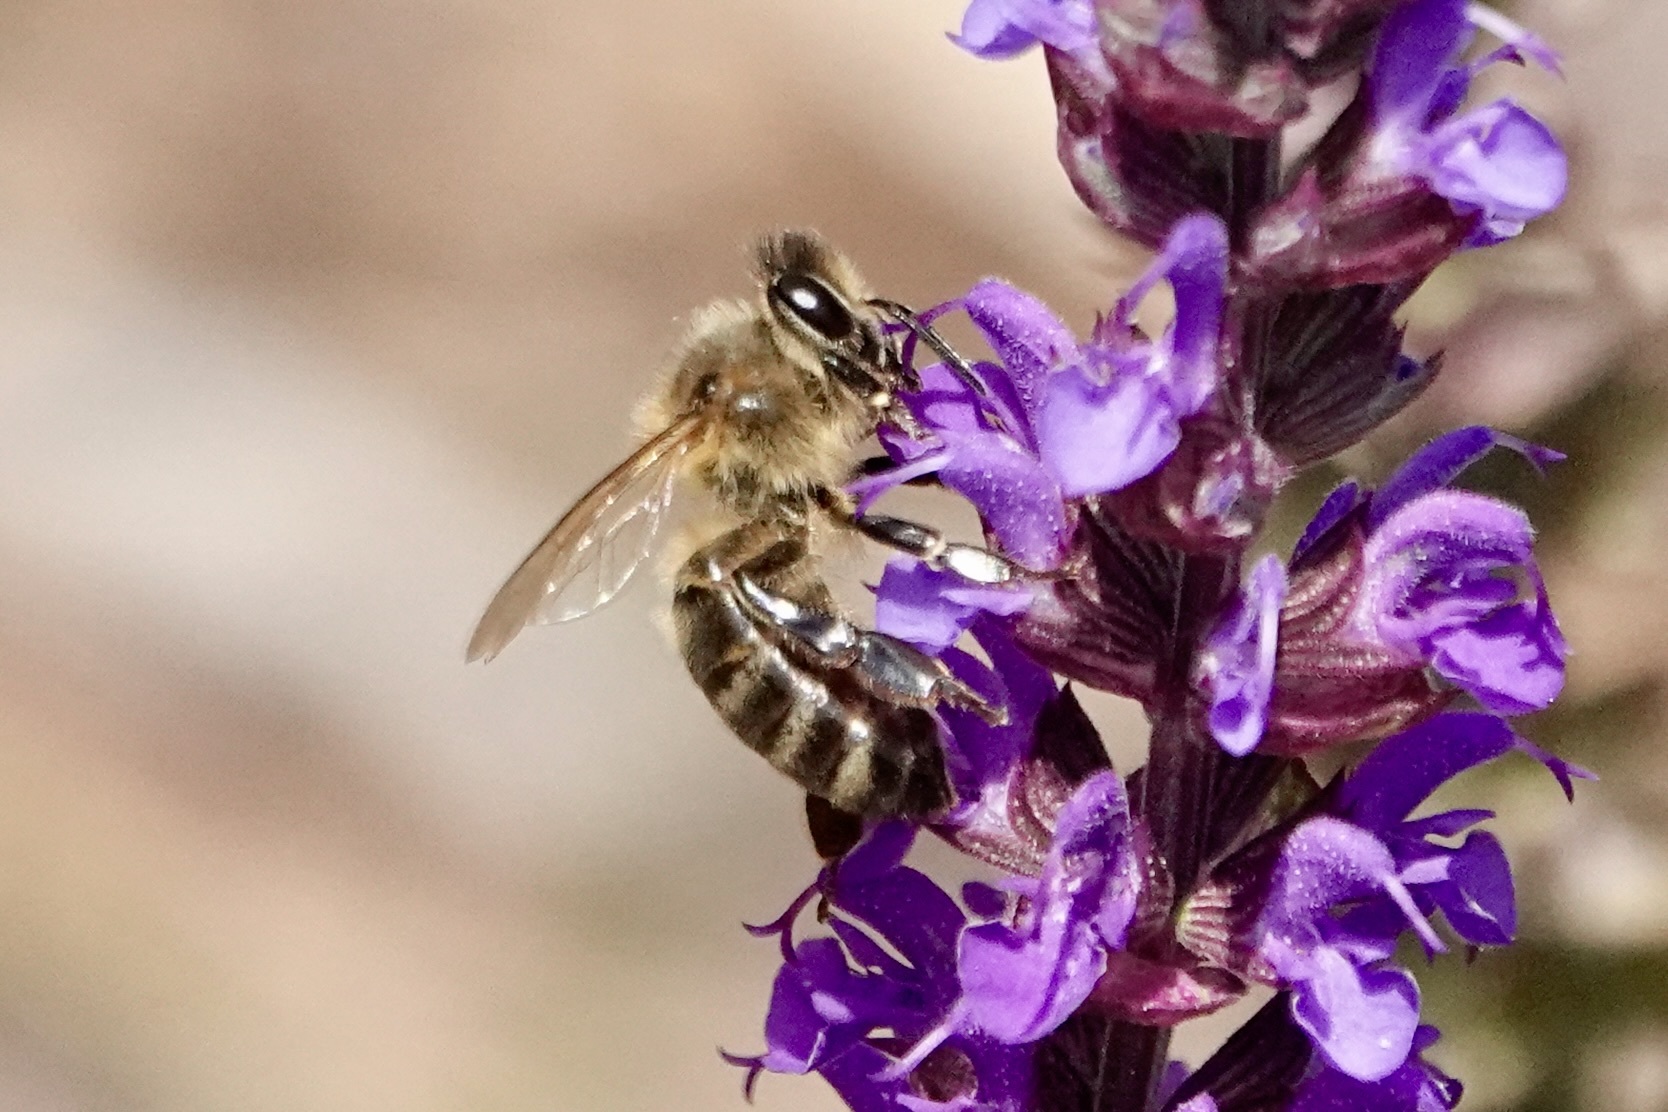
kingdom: Animalia
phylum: Arthropoda
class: Insecta
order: Hymenoptera
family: Apidae
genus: Apis
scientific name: Apis mellifera
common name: Honey bee
